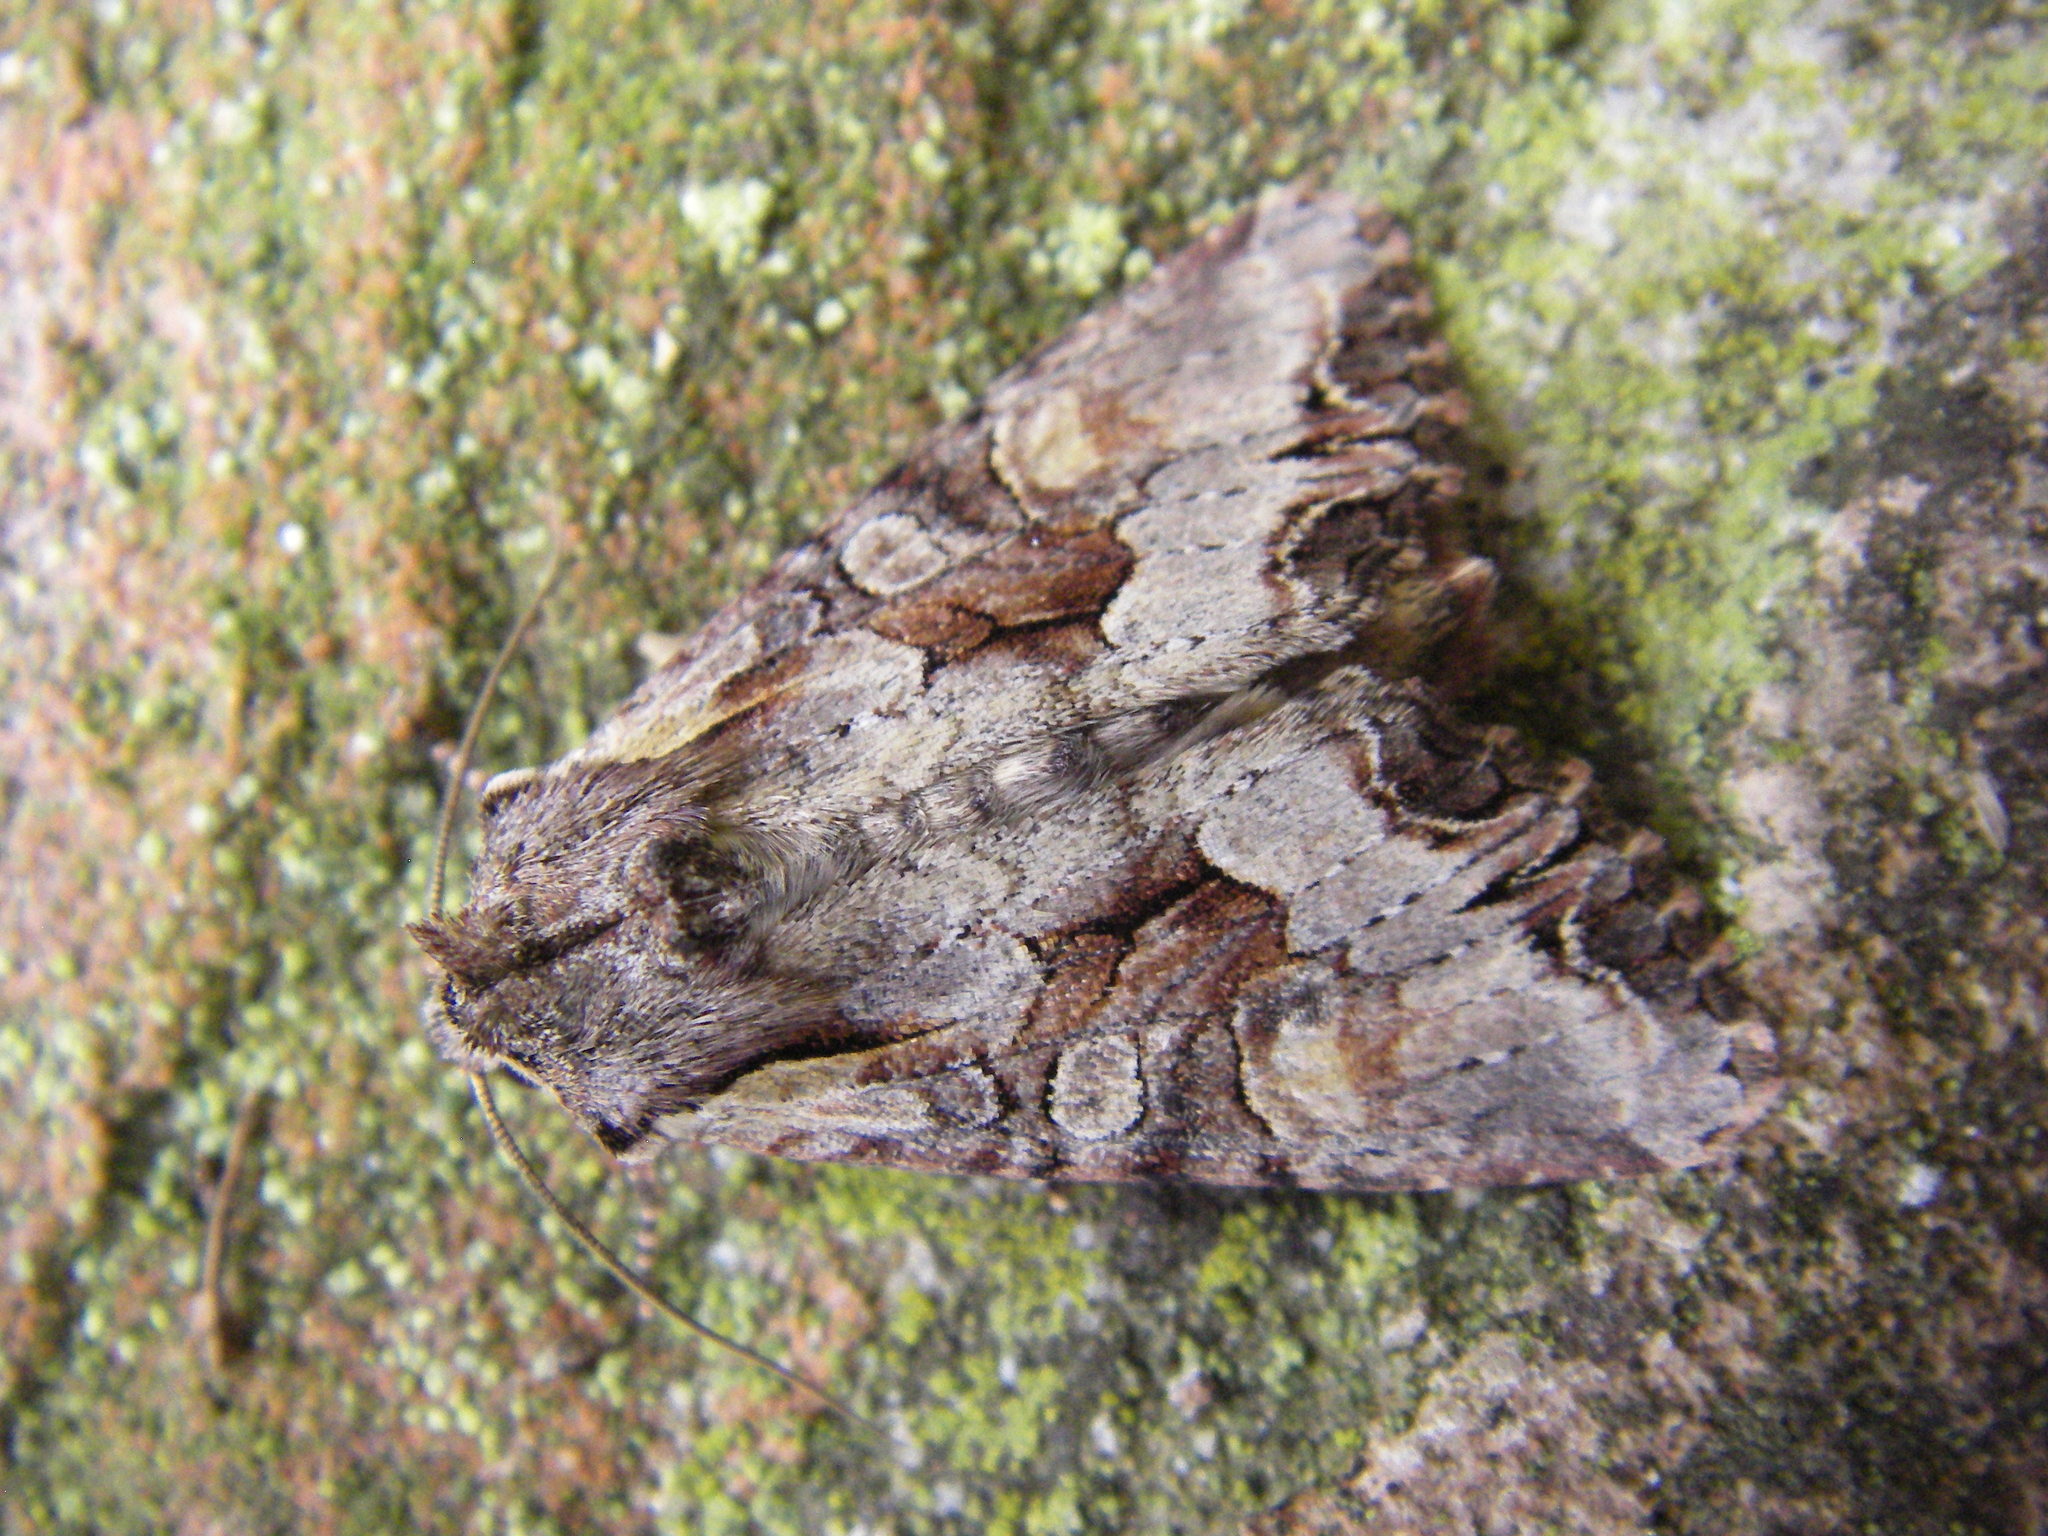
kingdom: Animalia
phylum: Arthropoda
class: Insecta
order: Lepidoptera
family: Noctuidae
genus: Lacanobia
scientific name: Lacanobia w-latinum
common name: Light brocade
